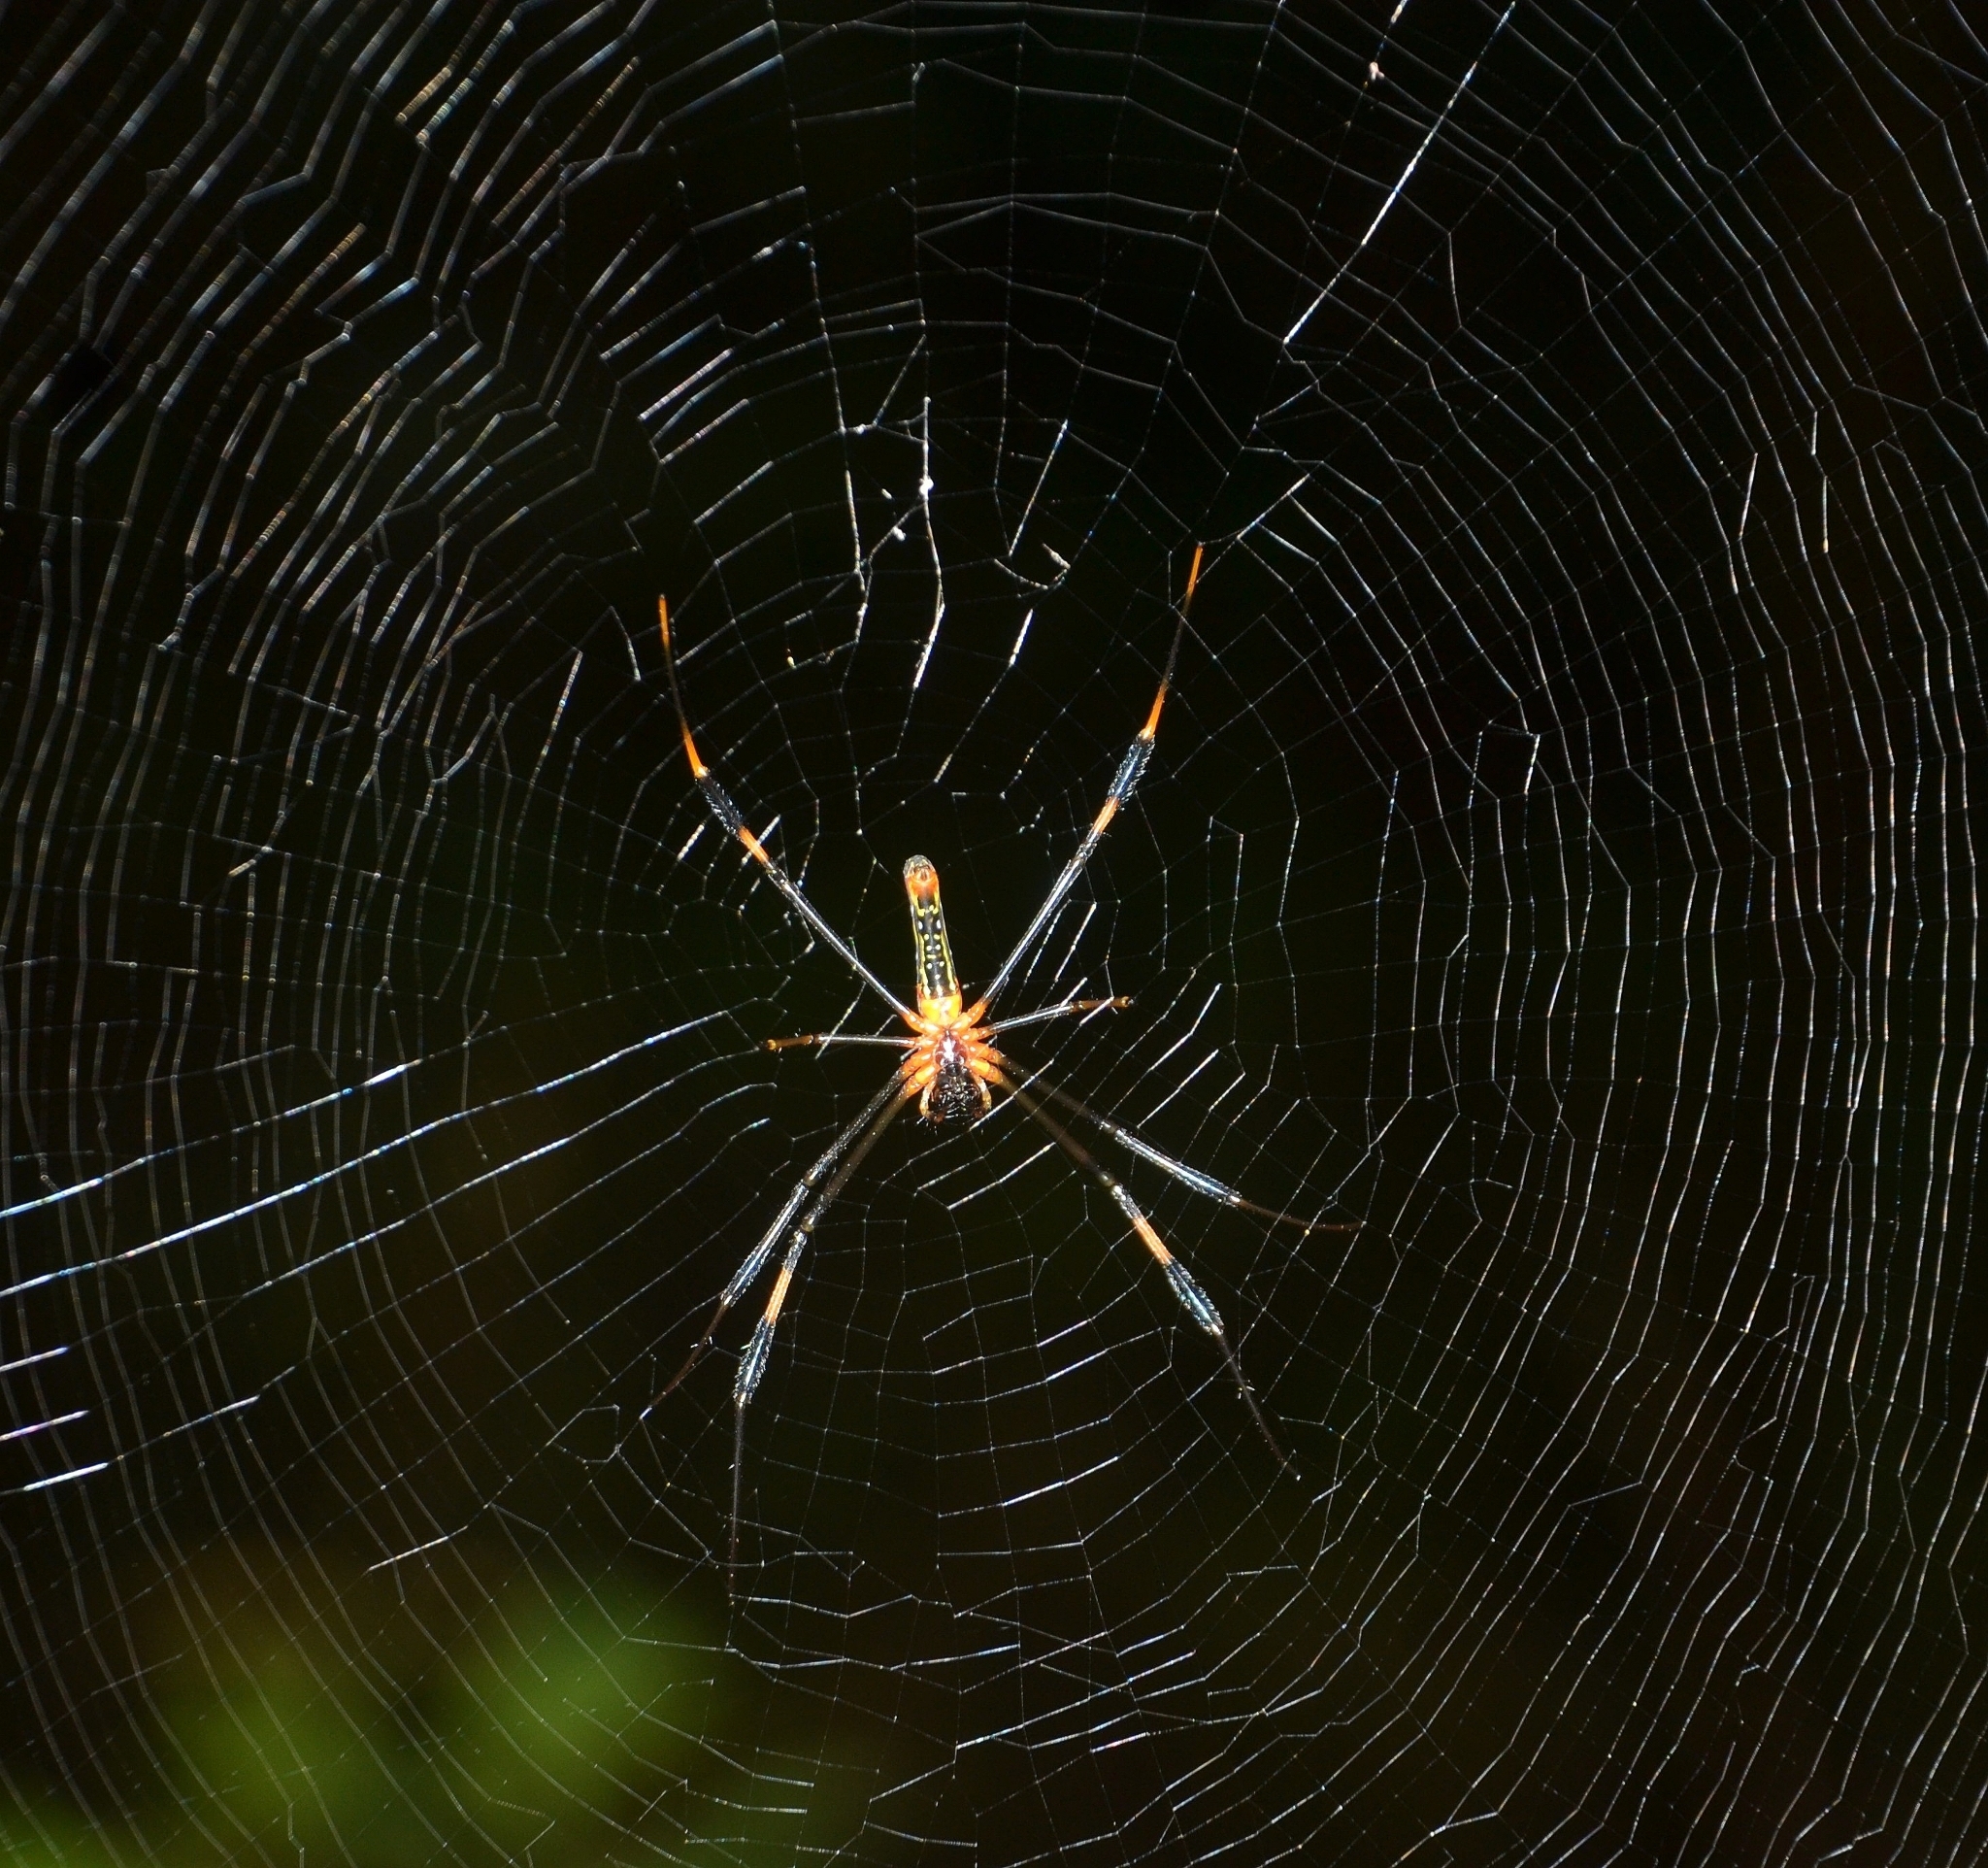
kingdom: Animalia
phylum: Arthropoda
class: Arachnida
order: Araneae
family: Araneidae
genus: Nephila
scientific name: Nephila pilipes
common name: Giant golden orb weaver
